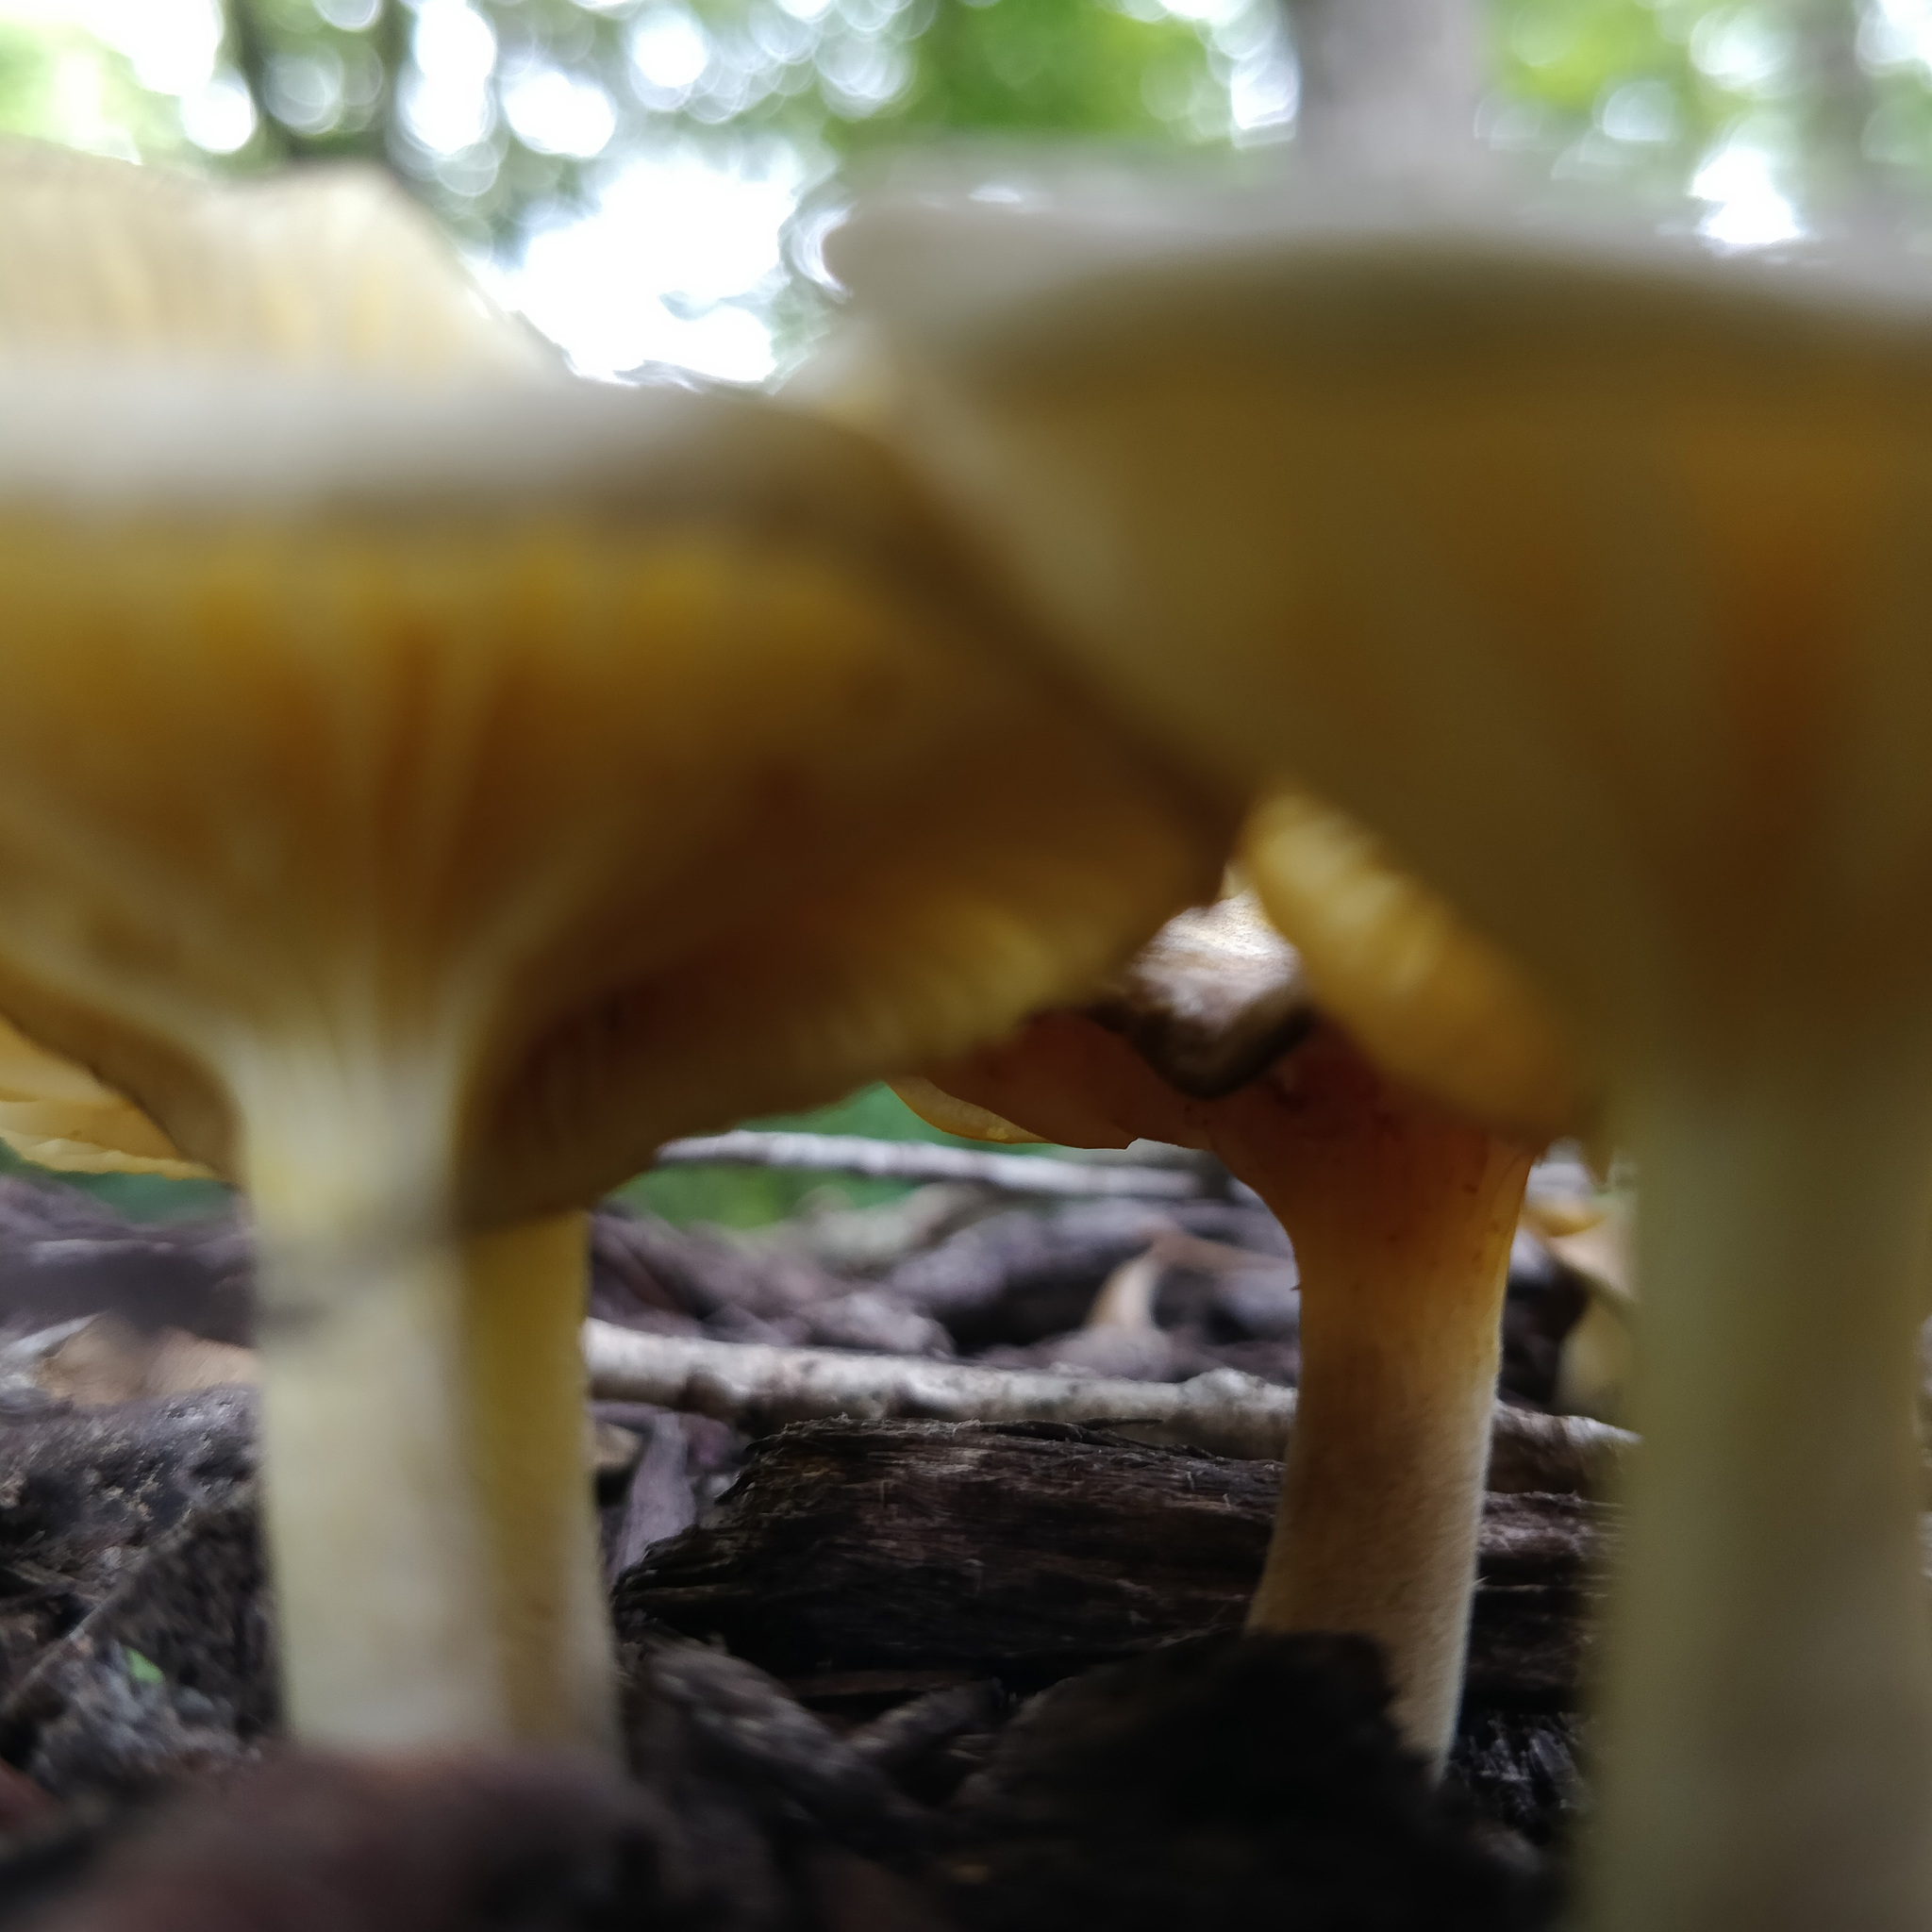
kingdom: Fungi
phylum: Basidiomycota
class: Agaricomycetes
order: Agaricales
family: Marasmiaceae
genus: Gerronema
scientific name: Gerronema strombodes
